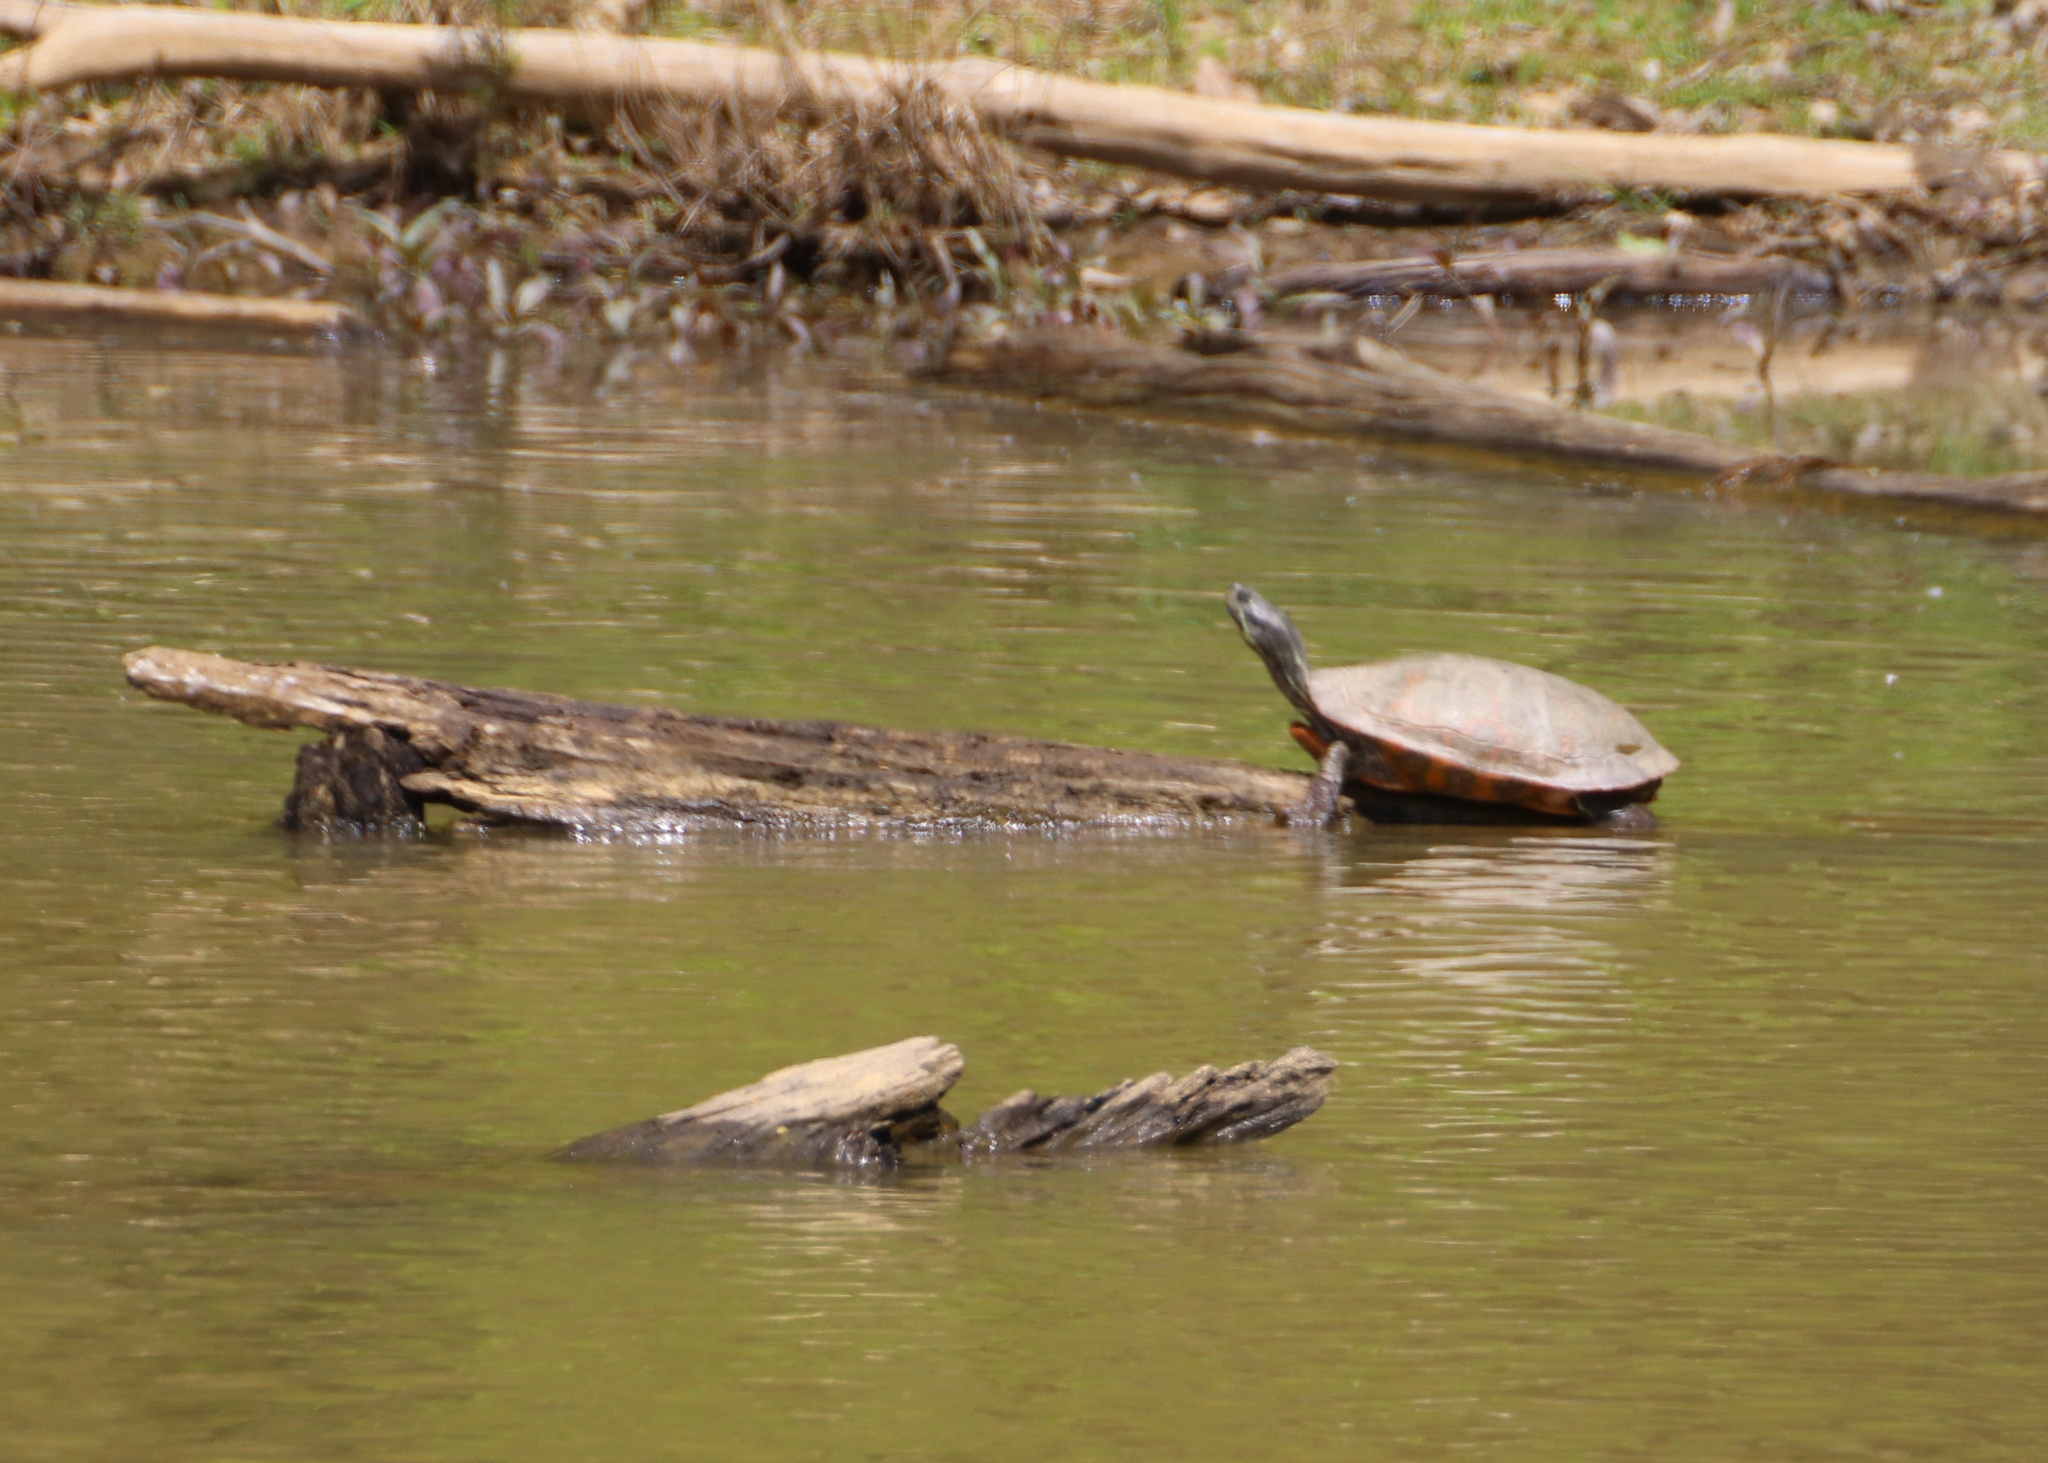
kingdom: Animalia
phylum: Chordata
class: Testudines
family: Emydidae
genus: Pseudemys
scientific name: Pseudemys rubriventris
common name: American red-bellied turtle
